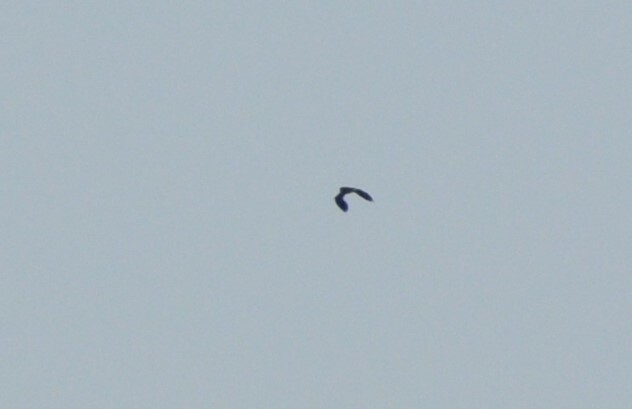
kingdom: Animalia
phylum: Chordata
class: Aves
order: Charadriiformes
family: Charadriidae
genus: Vanellus
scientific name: Vanellus vanellus
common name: Northern lapwing
